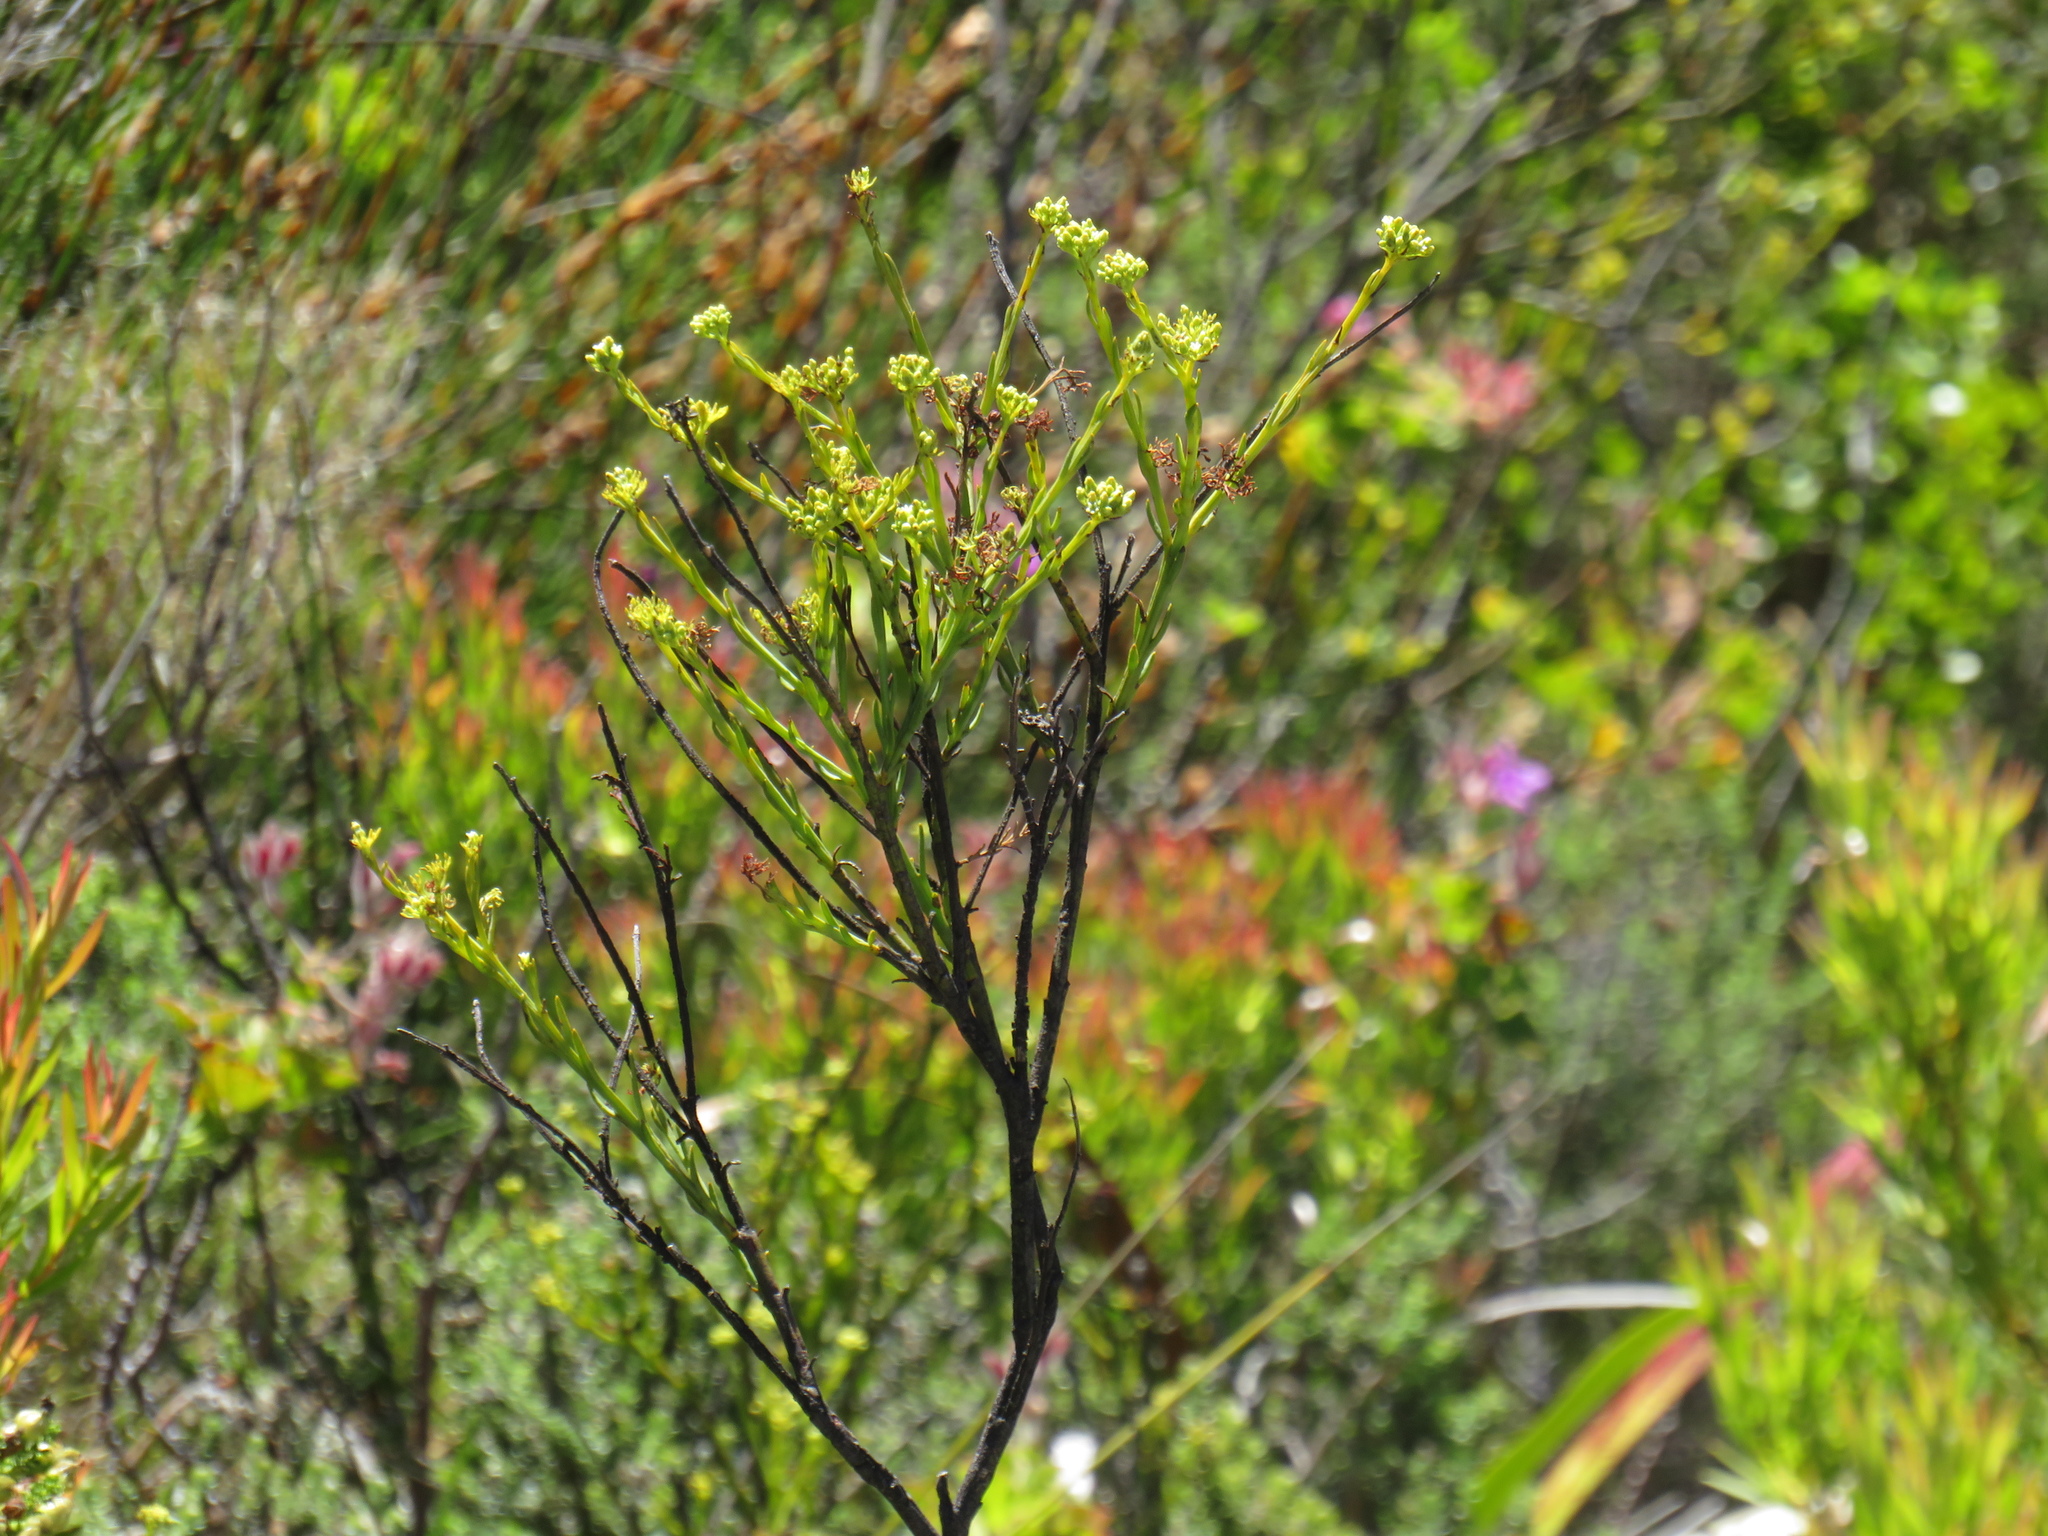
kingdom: Plantae
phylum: Tracheophyta
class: Magnoliopsida
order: Santalales
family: Thesiaceae
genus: Thesium
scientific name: Thesium strictum
